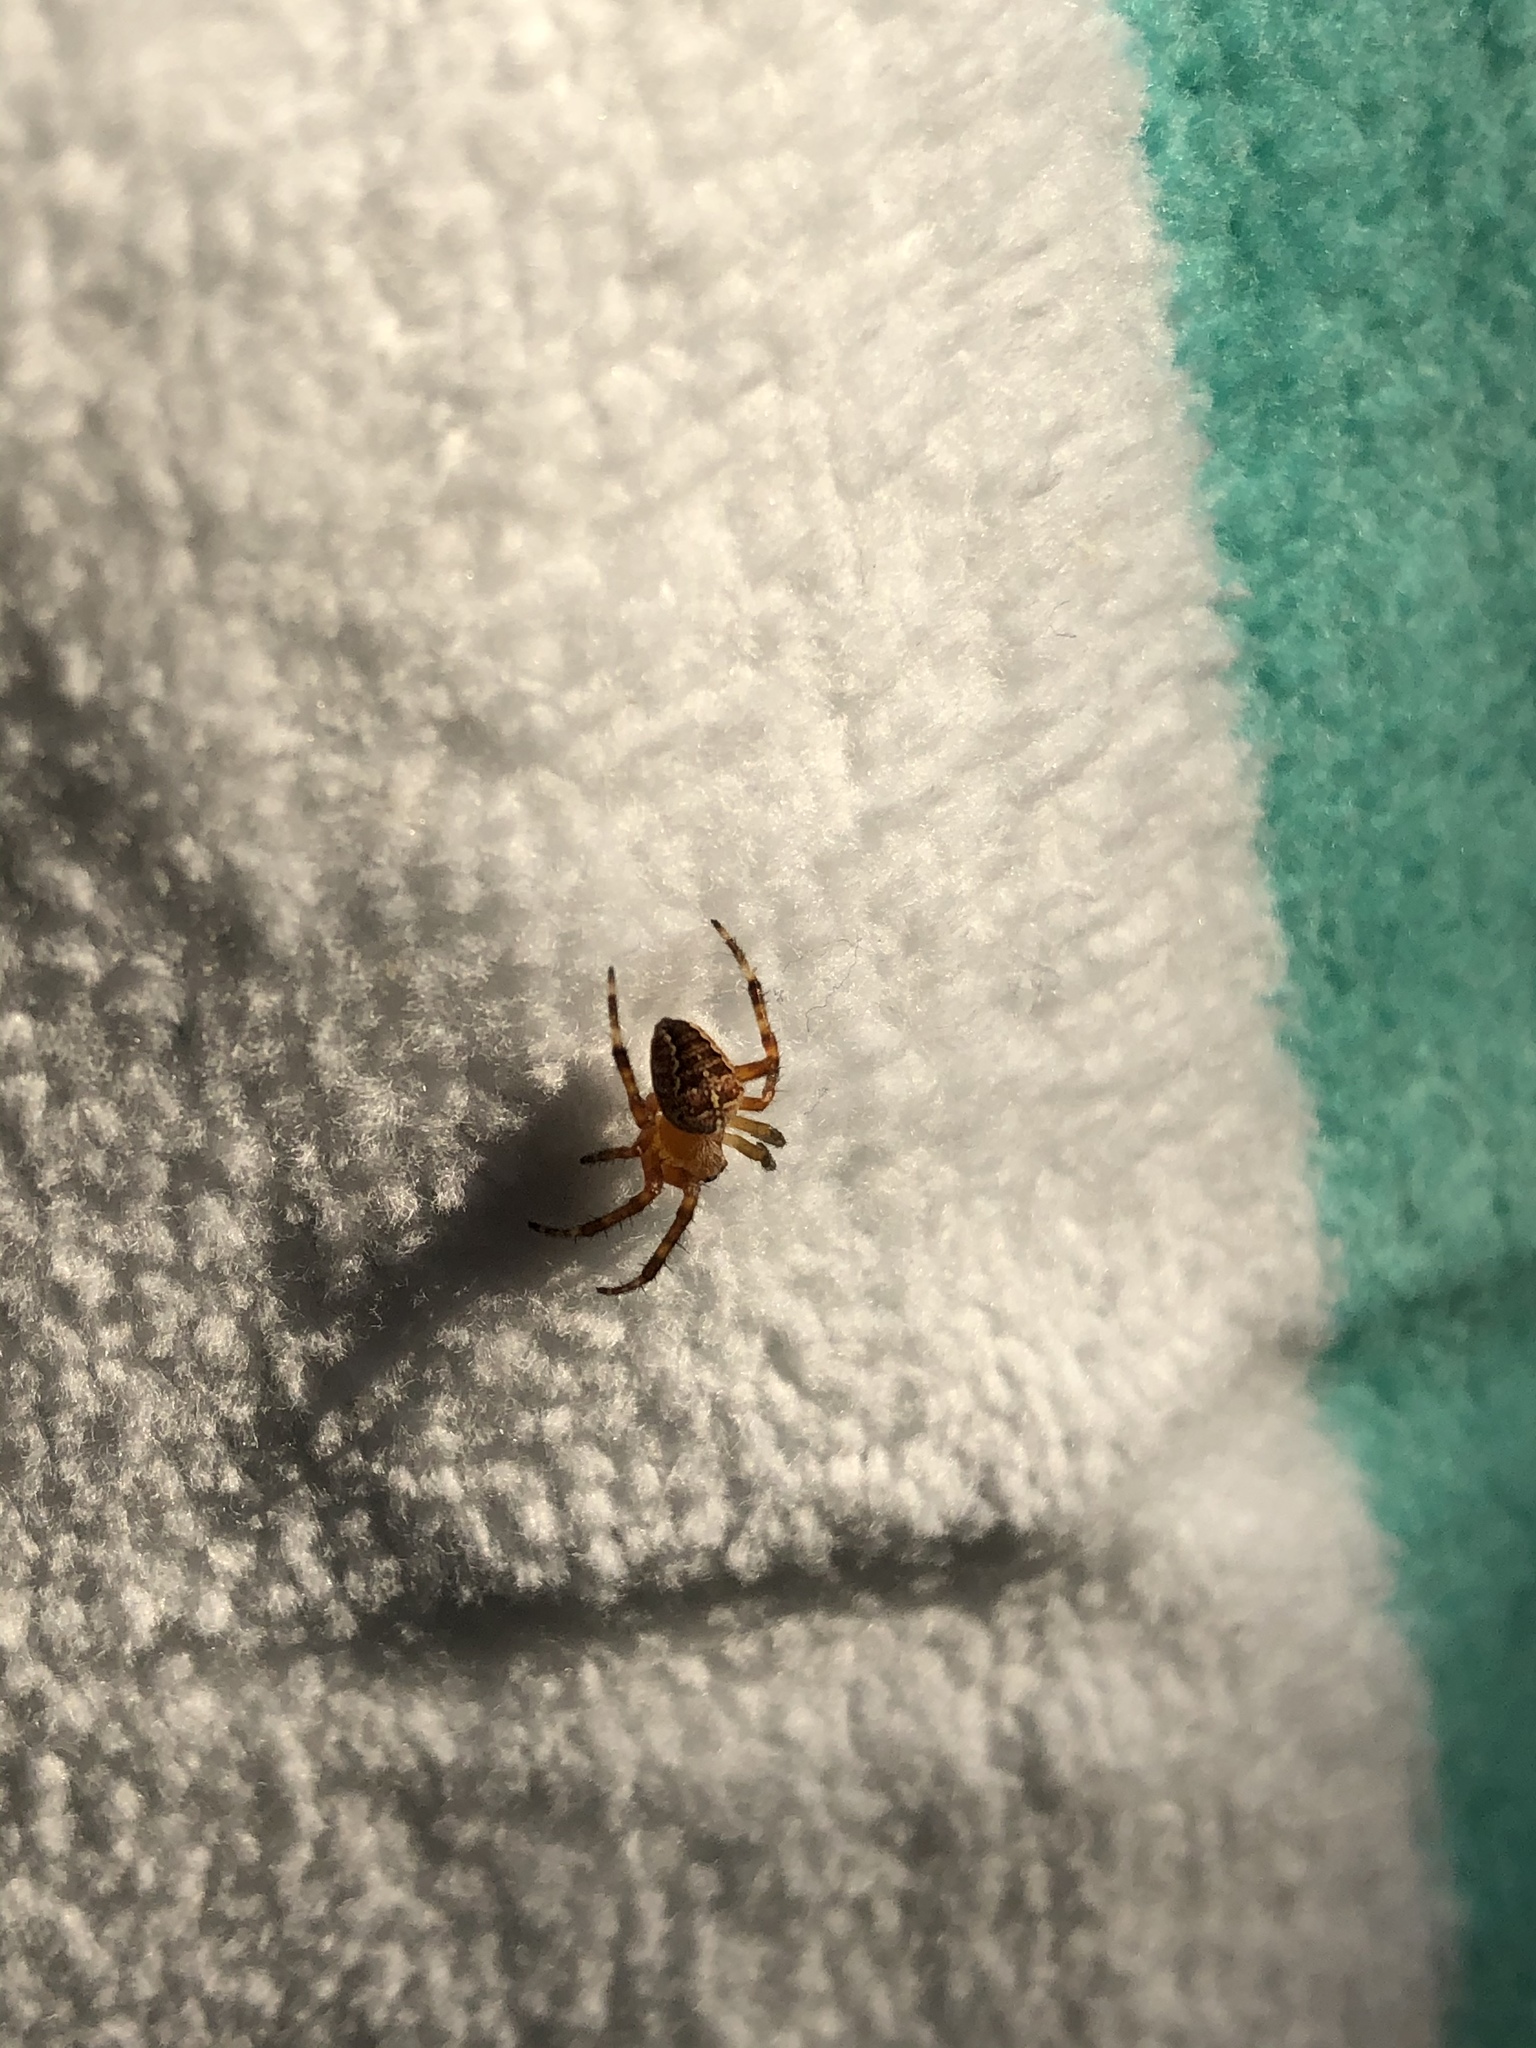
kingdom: Animalia
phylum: Arthropoda
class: Arachnida
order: Araneae
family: Araneidae
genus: Araneus
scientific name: Araneus diadematus
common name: Cross orbweaver
